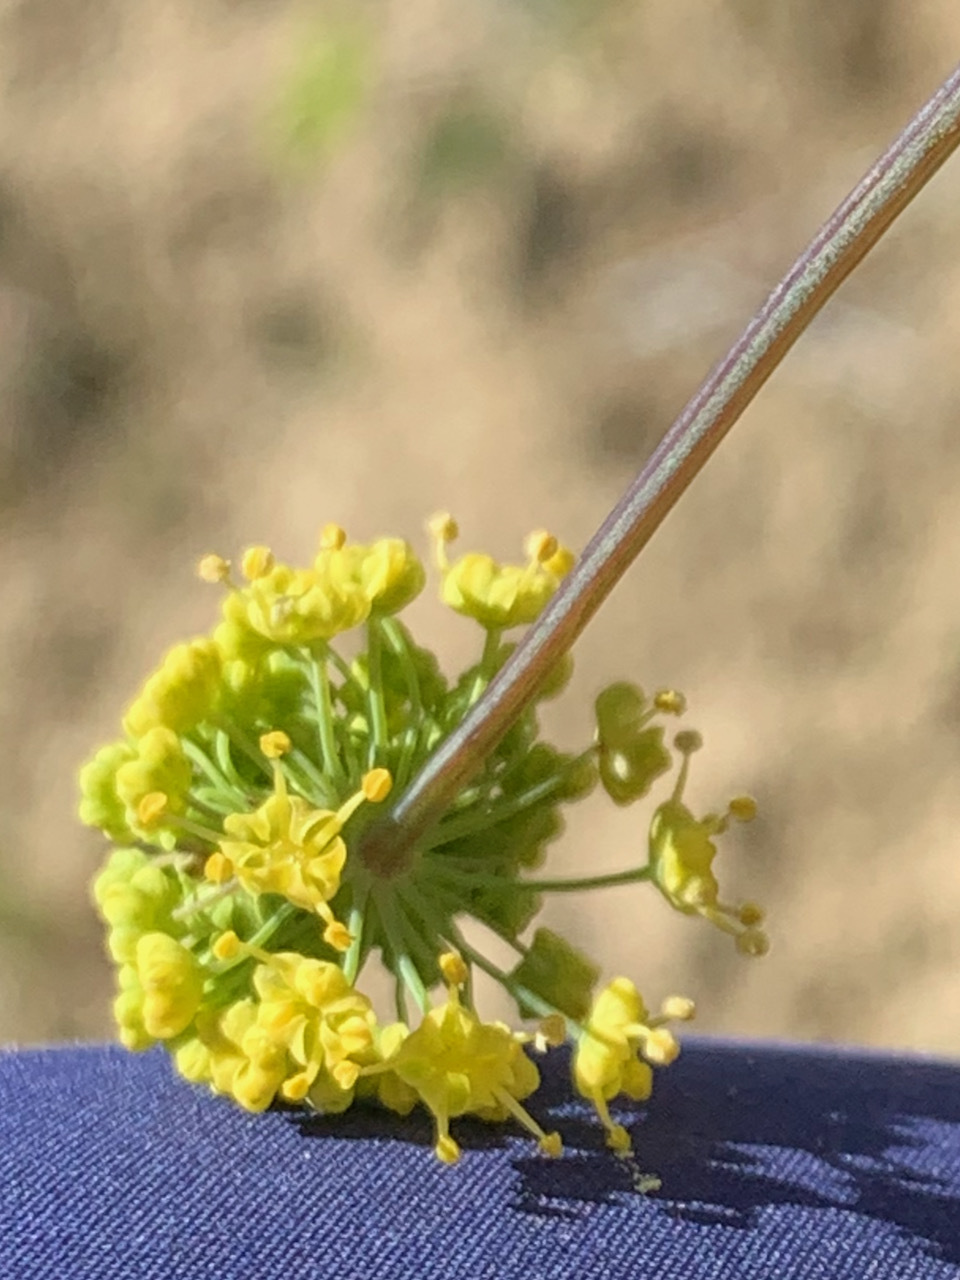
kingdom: Plantae
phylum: Tracheophyta
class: Magnoliopsida
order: Apiales
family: Apiaceae
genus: Lomatium
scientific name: Lomatium nudicaule
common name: Pestle lomatium
